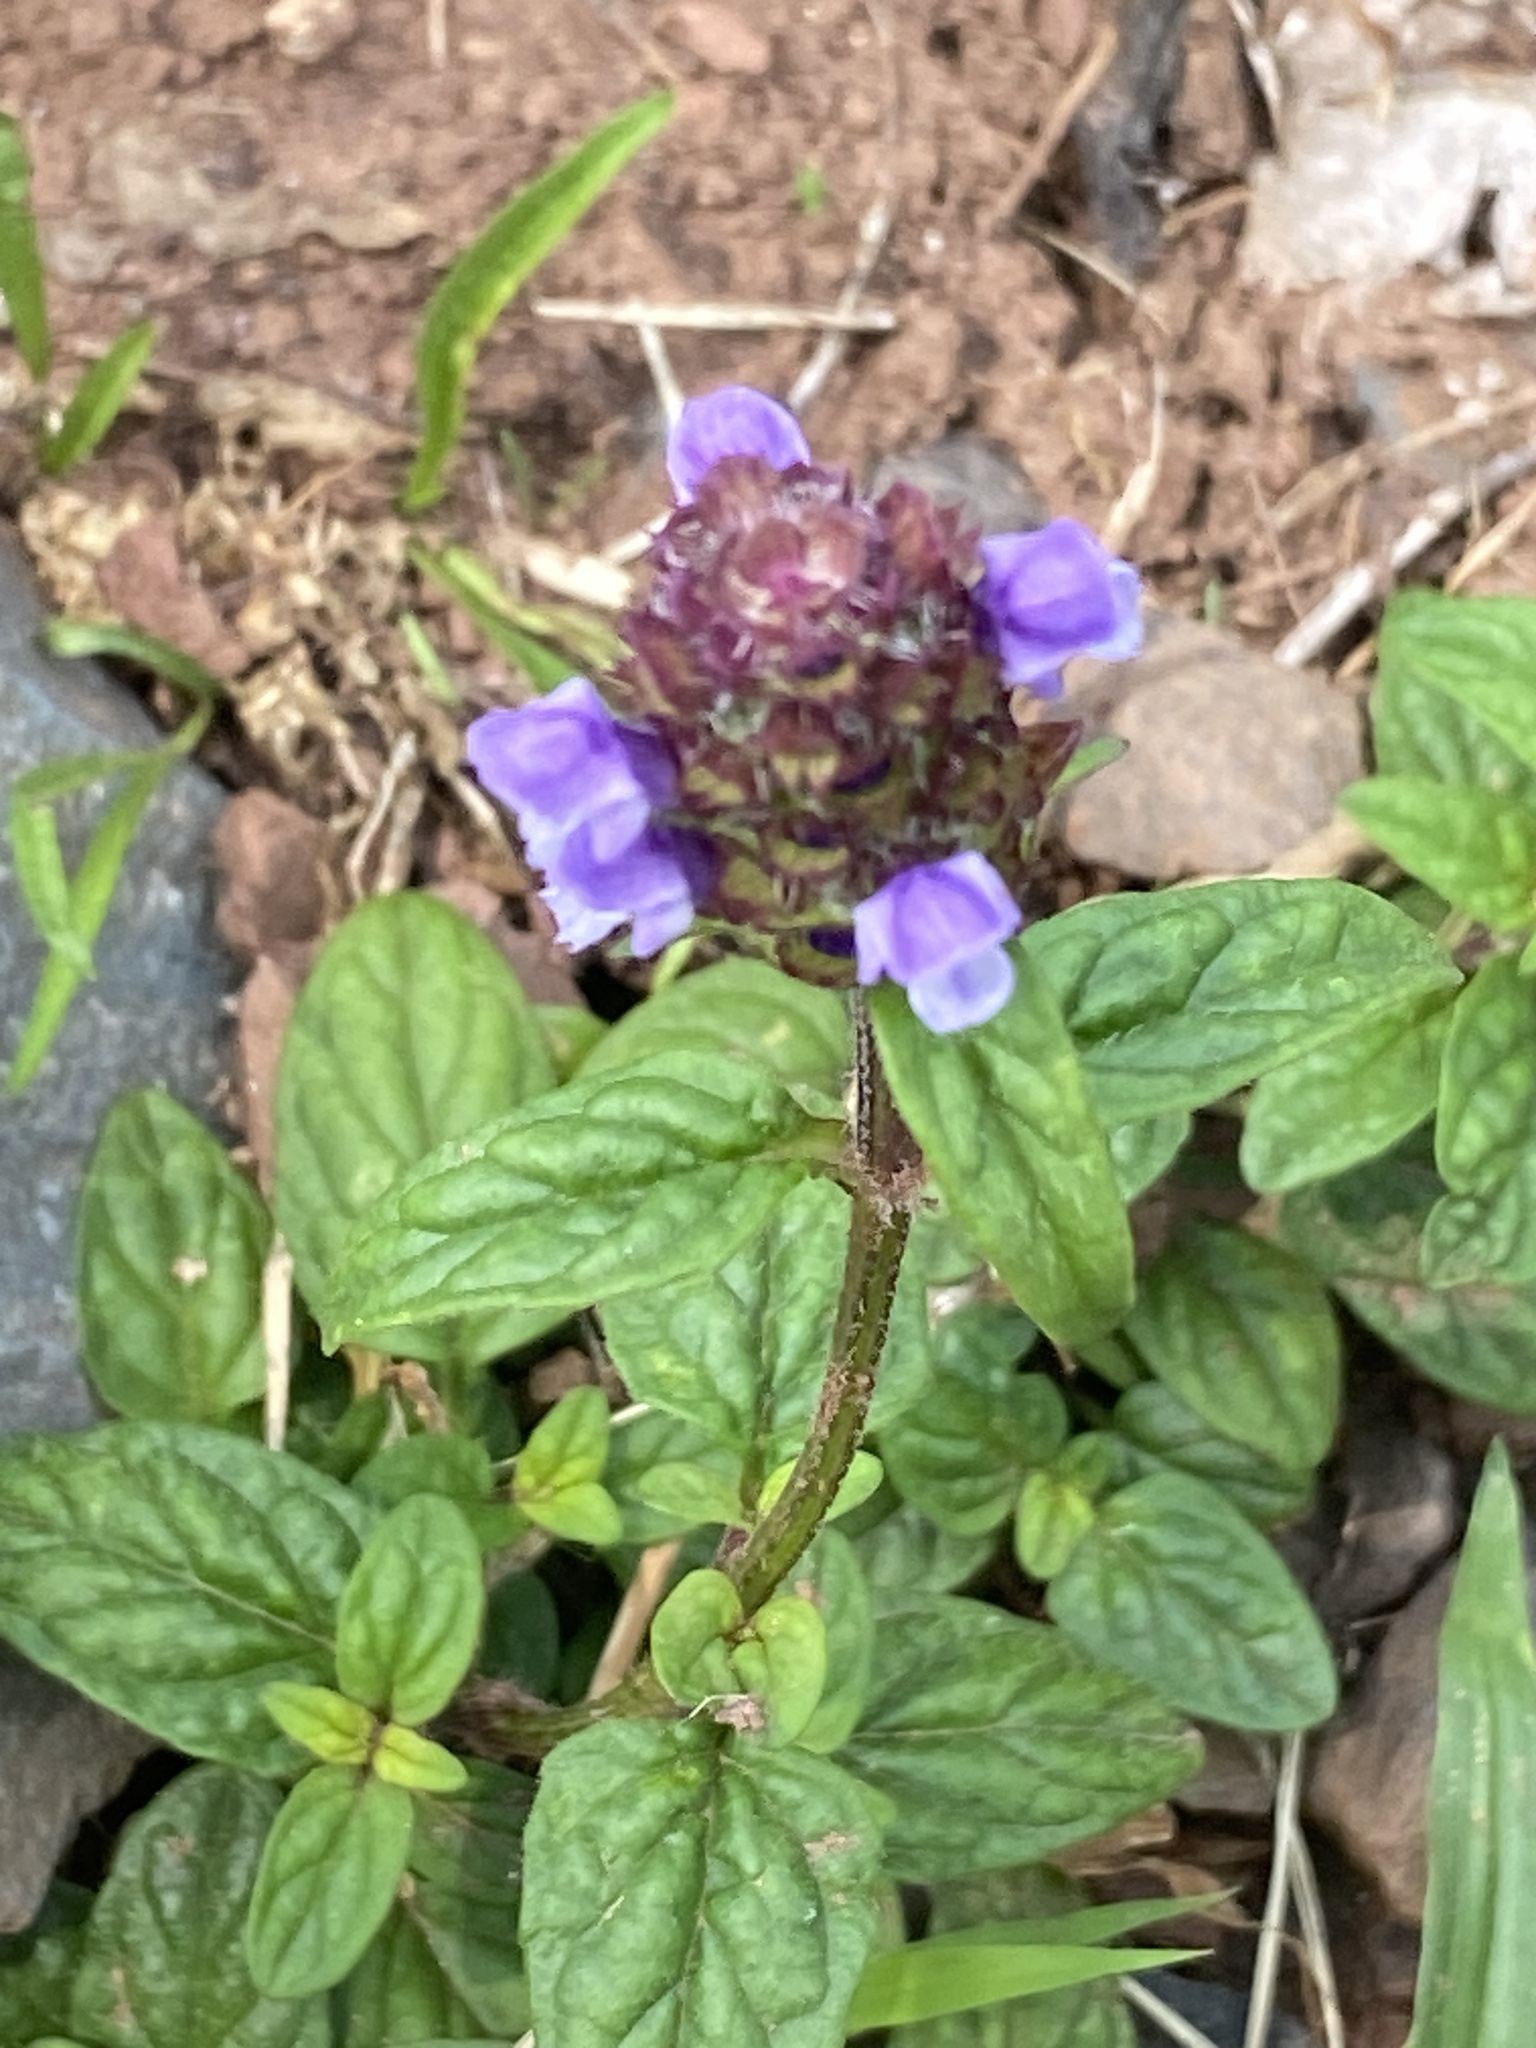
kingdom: Plantae
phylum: Tracheophyta
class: Magnoliopsida
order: Lamiales
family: Lamiaceae
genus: Prunella
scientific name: Prunella vulgaris
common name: Heal-all
